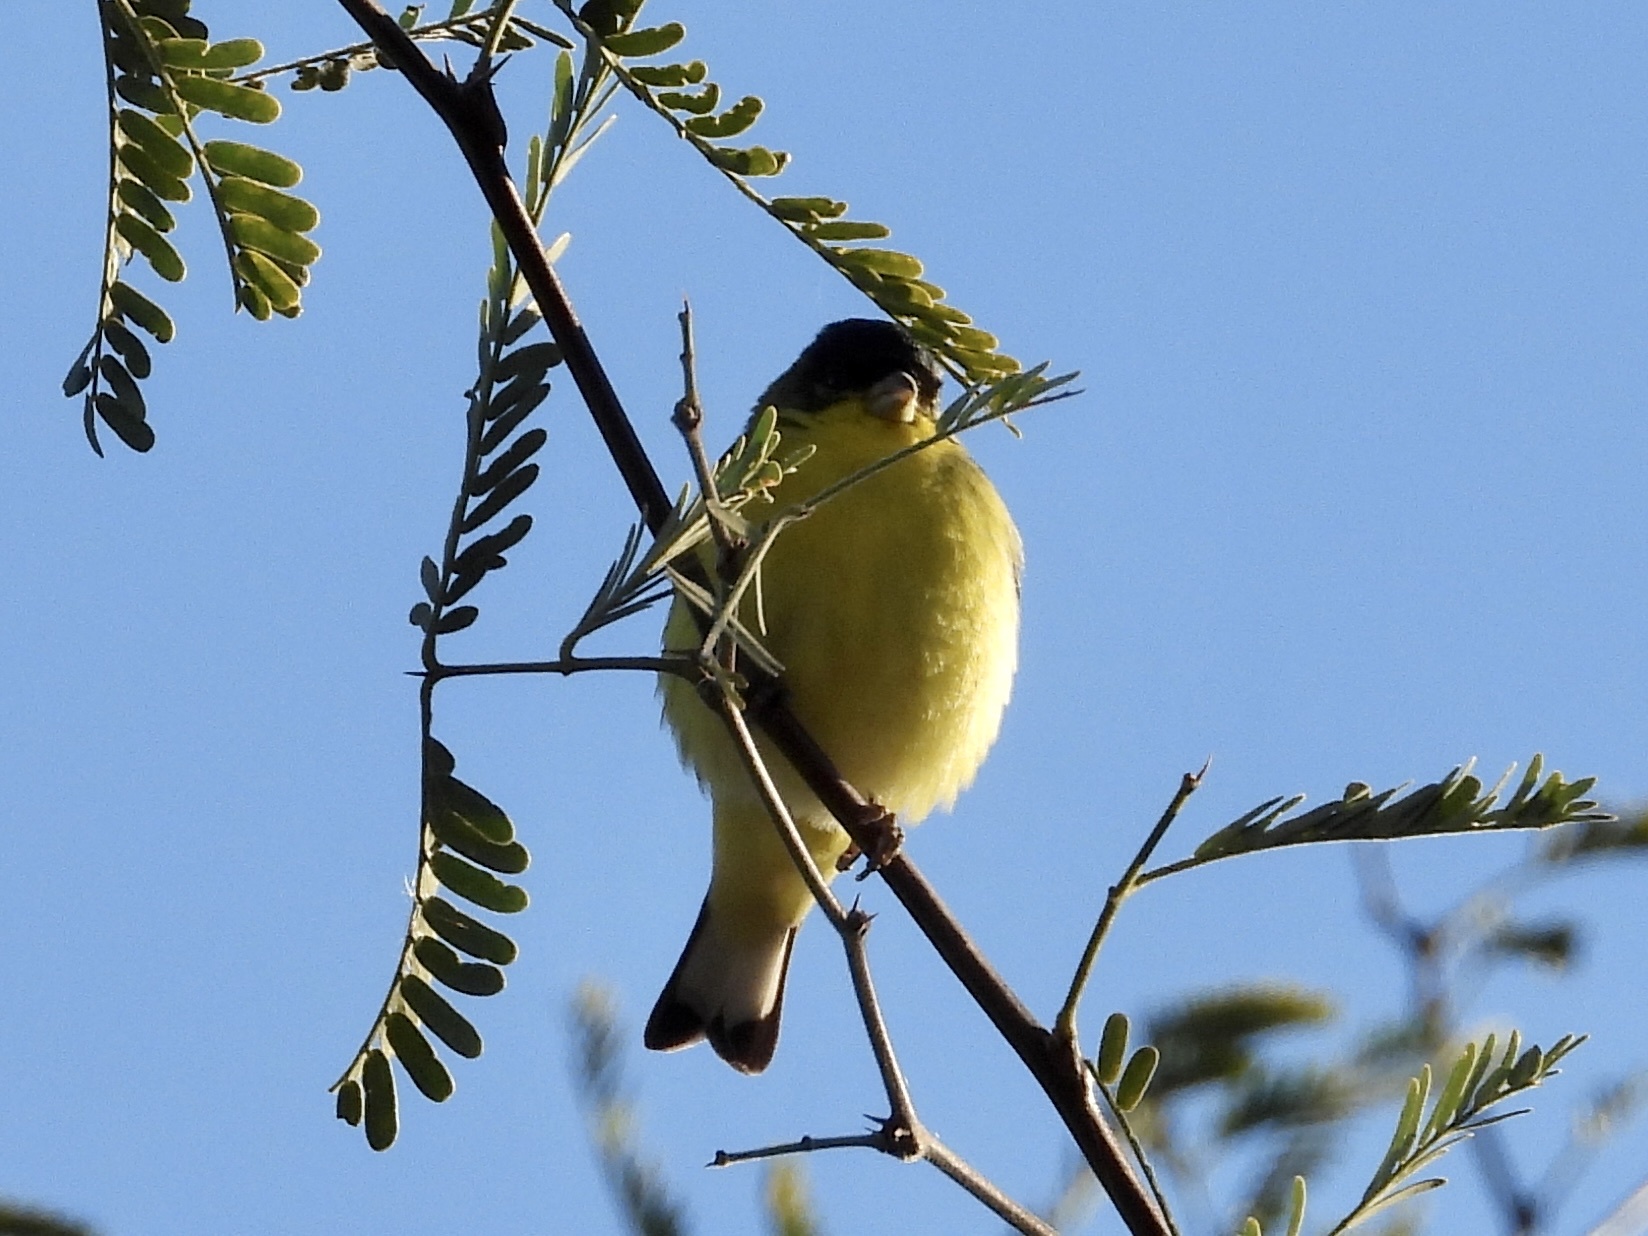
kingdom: Animalia
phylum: Chordata
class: Aves
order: Passeriformes
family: Fringillidae
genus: Spinus
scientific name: Spinus psaltria
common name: Lesser goldfinch
